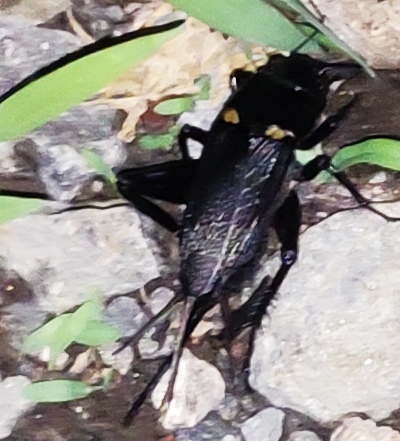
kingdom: Animalia
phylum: Arthropoda
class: Insecta
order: Orthoptera
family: Gryllidae
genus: Gryllus
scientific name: Gryllus bimaculatus
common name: Two-spotted cricket
